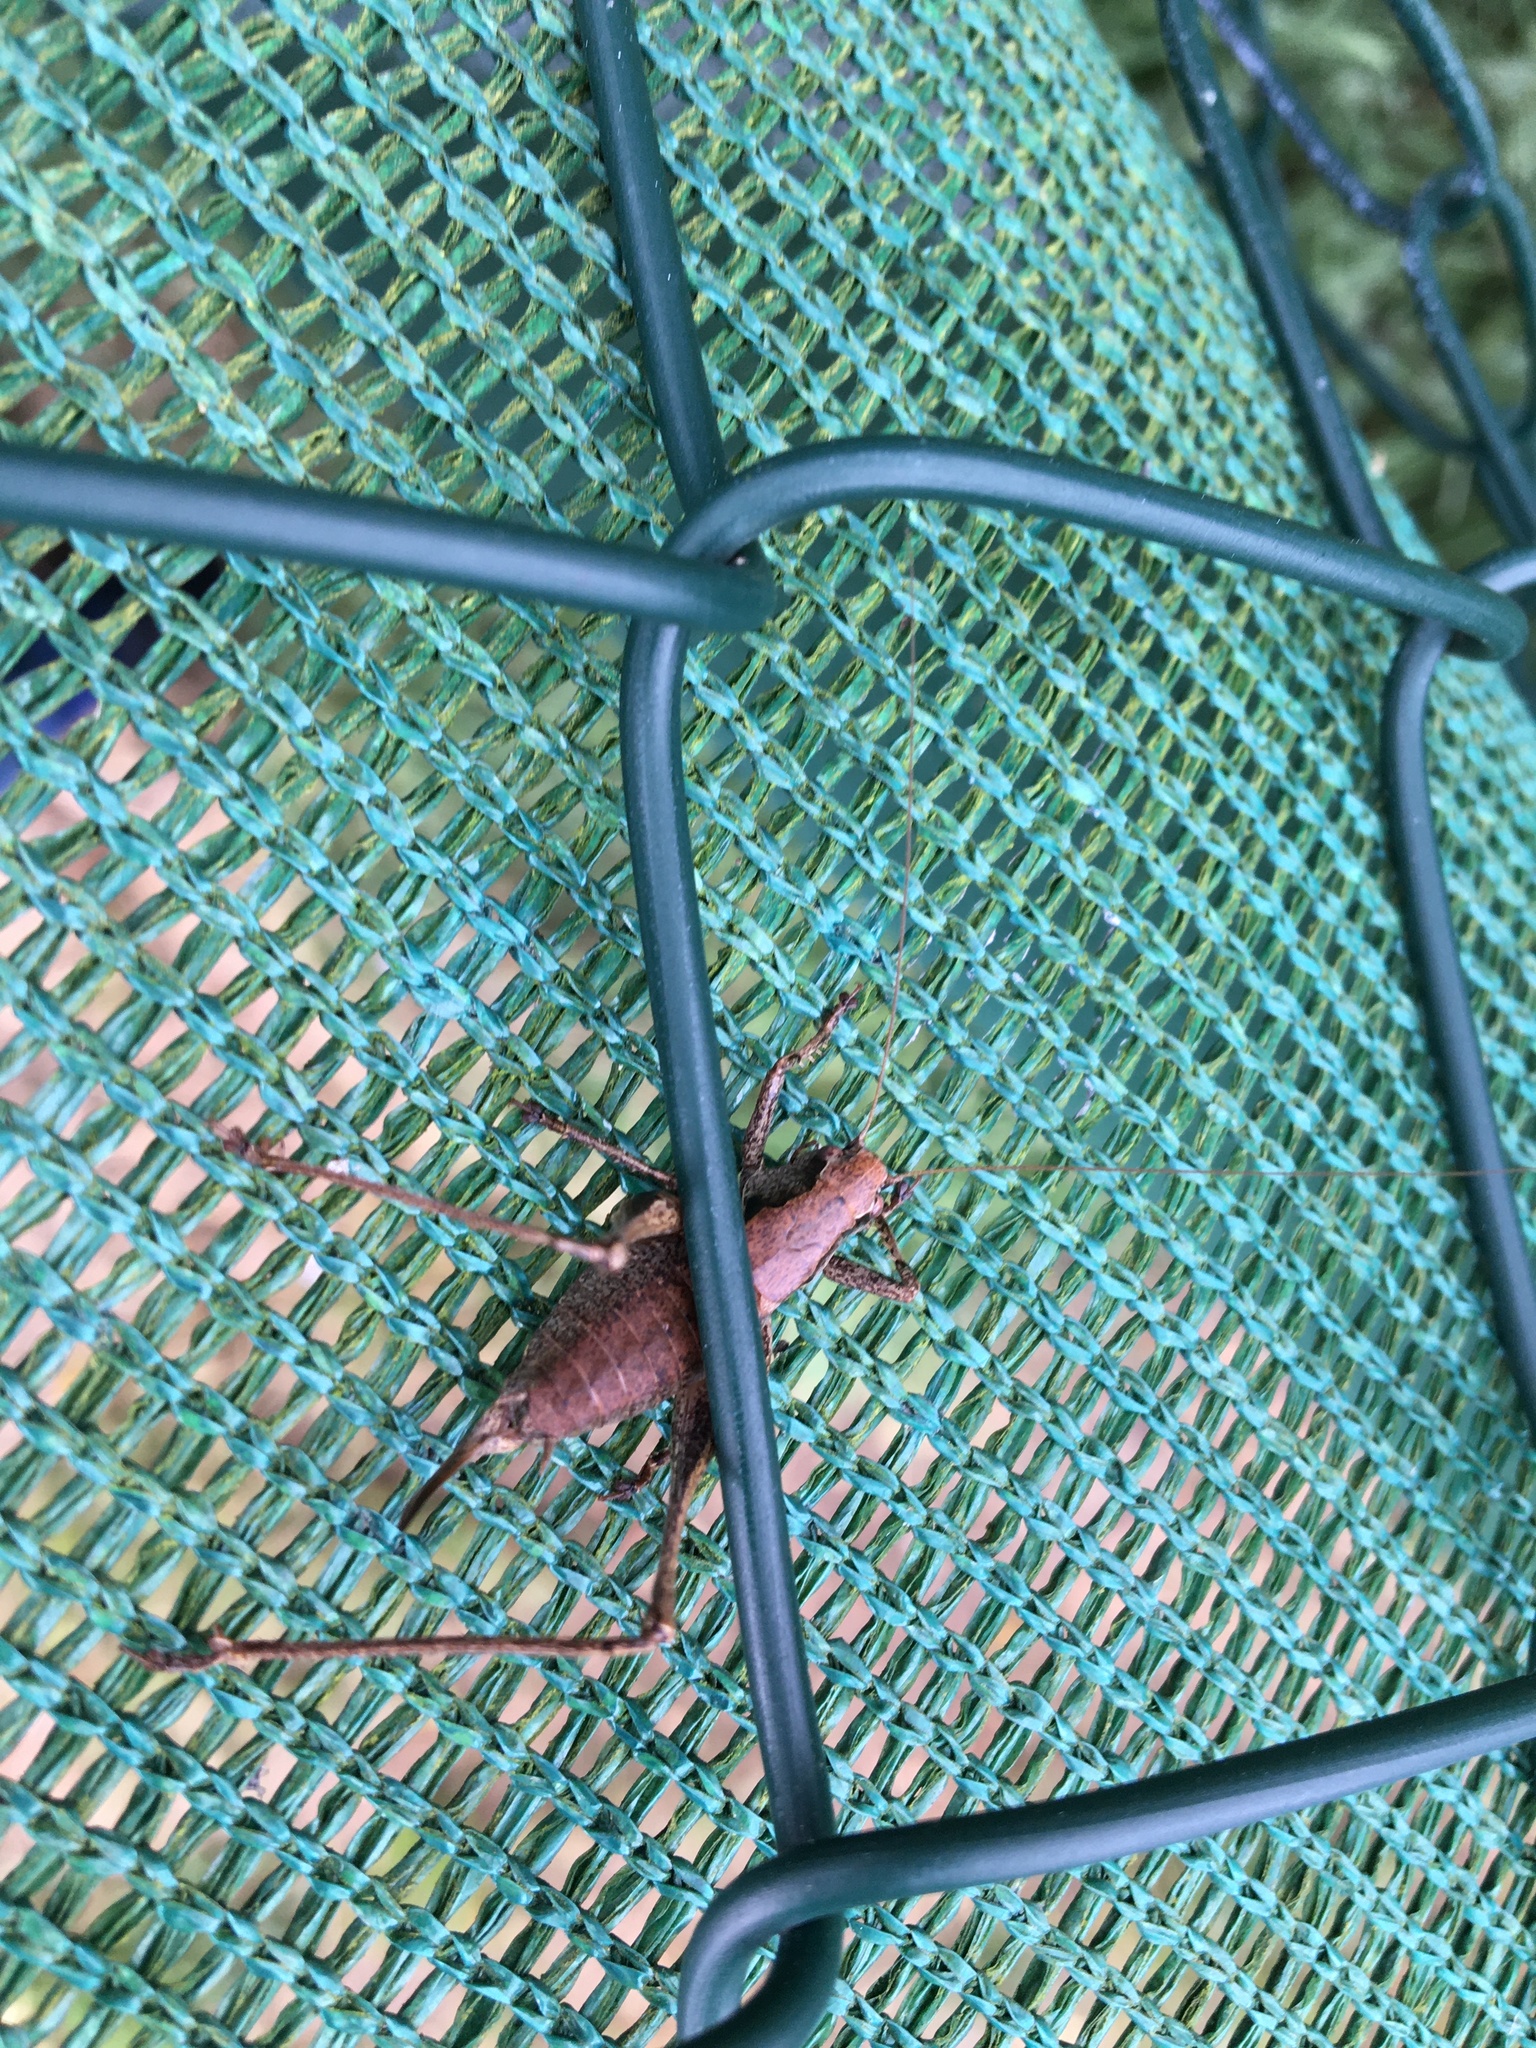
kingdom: Animalia
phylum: Arthropoda
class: Insecta
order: Orthoptera
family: Tettigoniidae
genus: Pholidoptera
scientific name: Pholidoptera griseoaptera
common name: Dark bush-cricket
